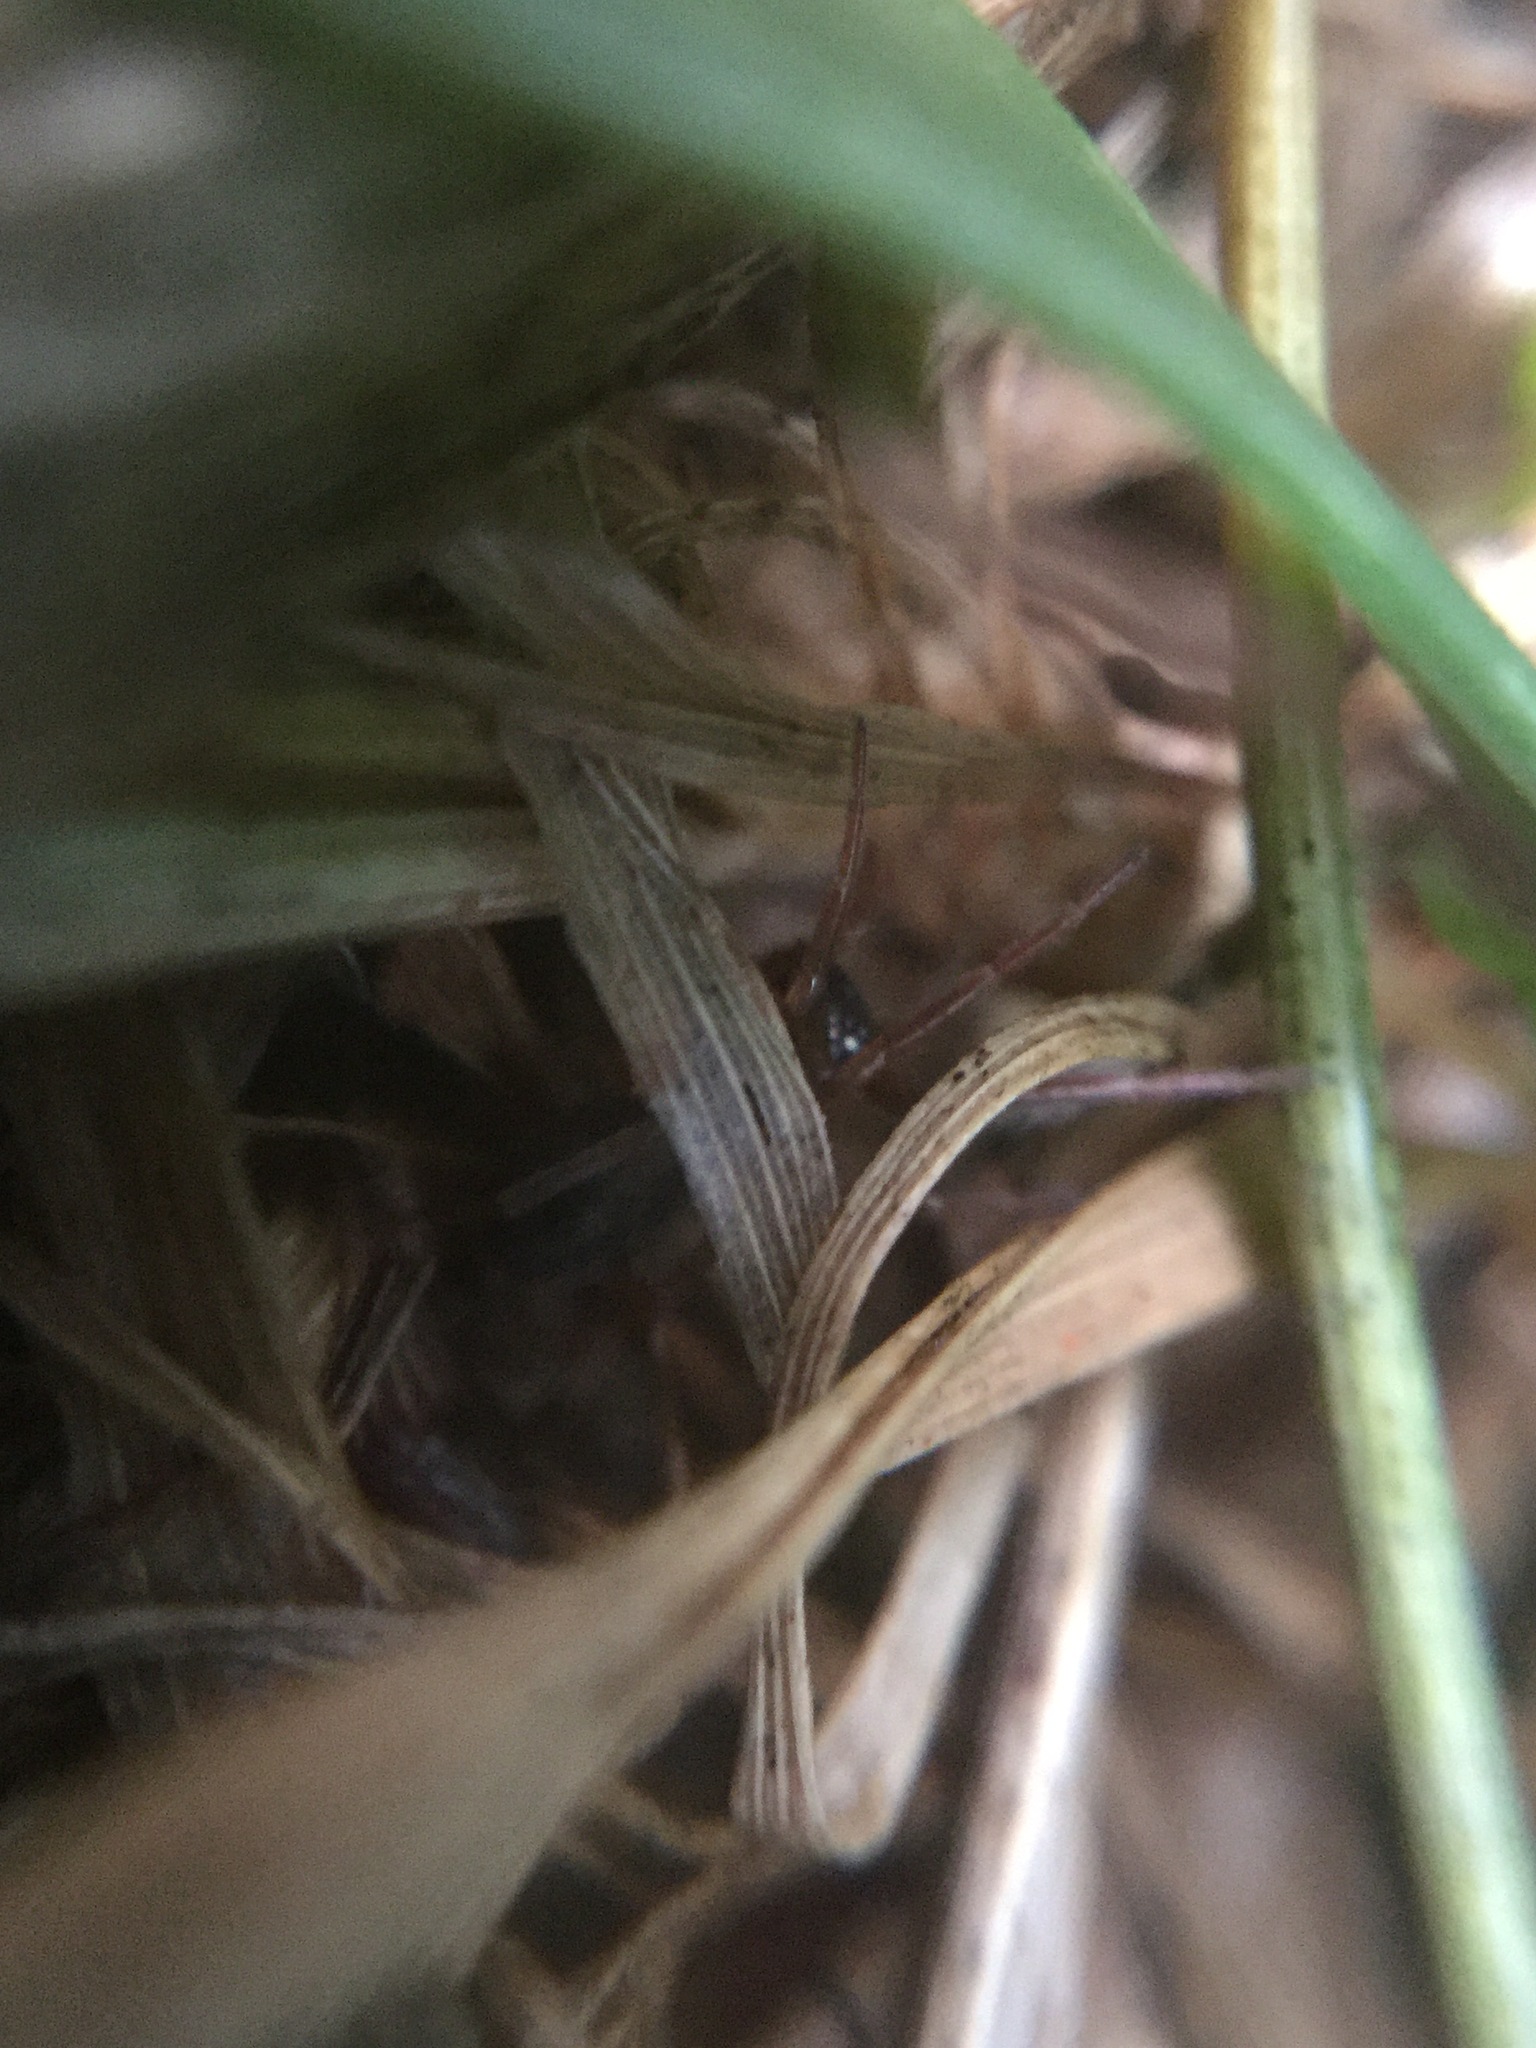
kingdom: Animalia
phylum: Arthropoda
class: Arachnida
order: Araneae
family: Trachelidae
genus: Trachelas
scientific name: Trachelas tranquillus
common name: Broad-faced sac spider
